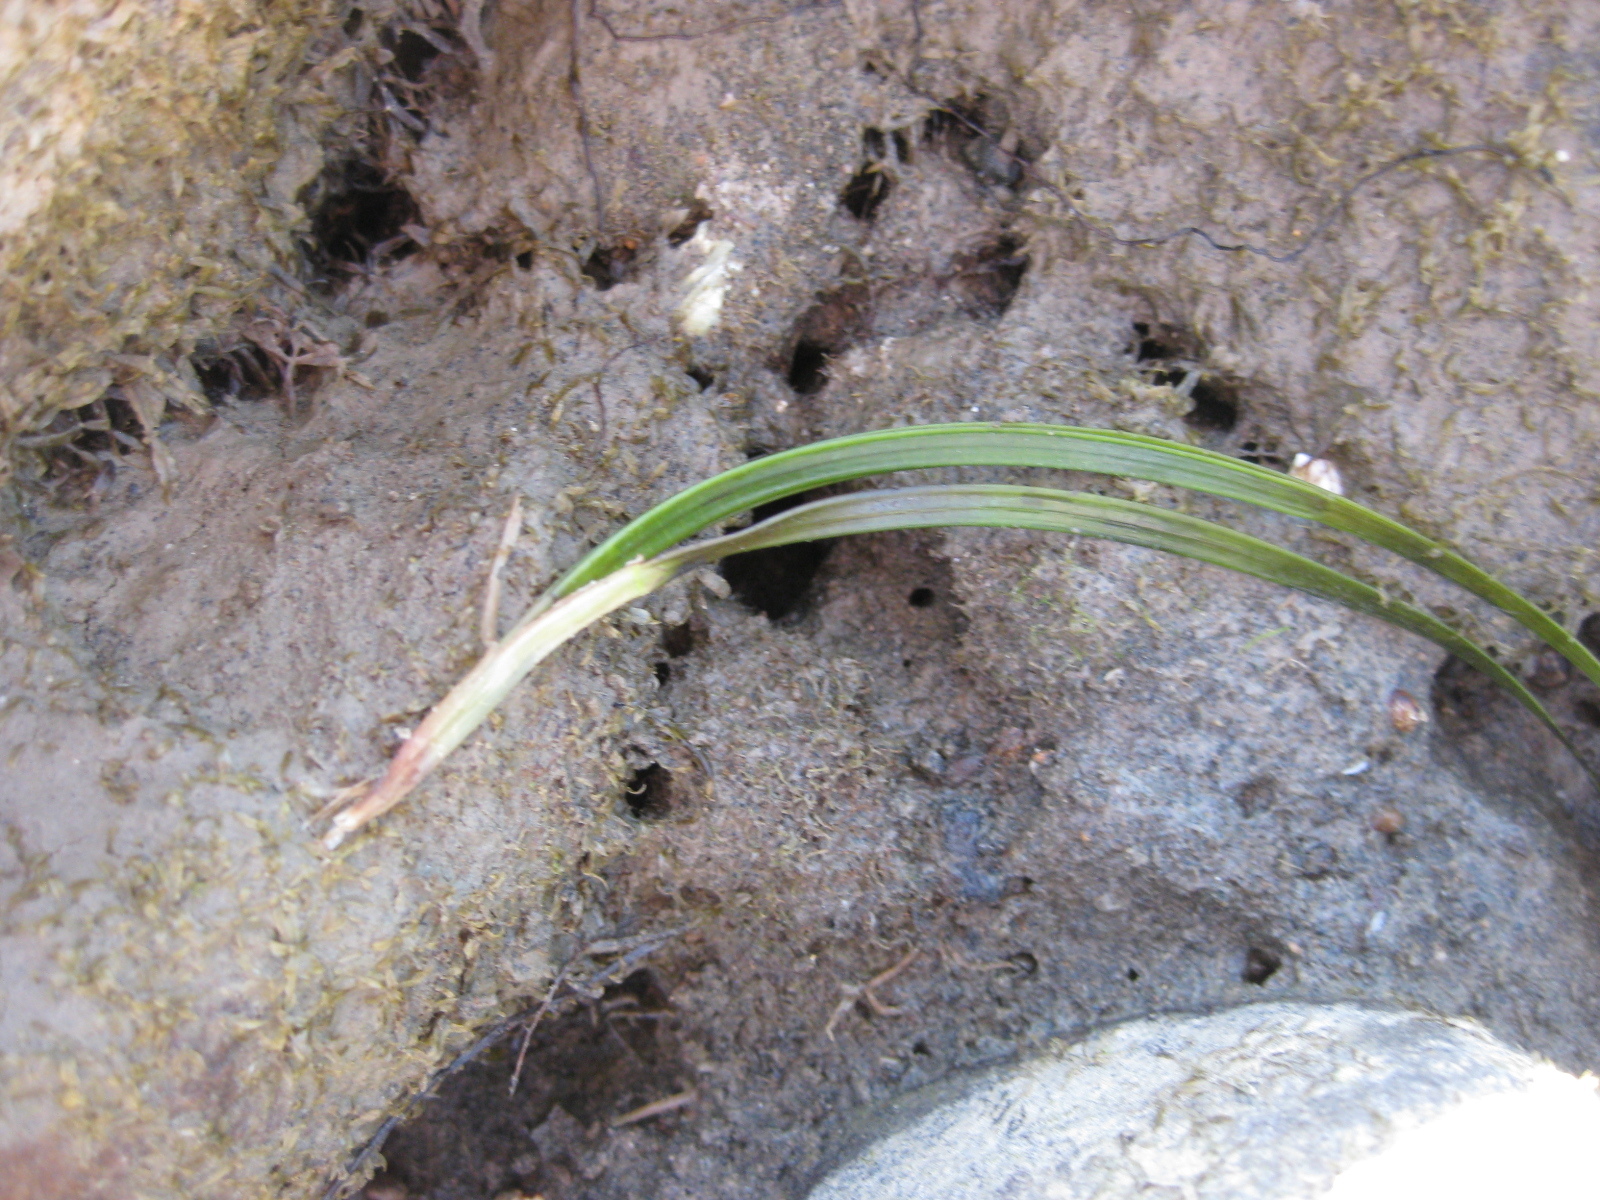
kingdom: Plantae
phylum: Tracheophyta
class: Liliopsida
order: Alismatales
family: Zosteraceae
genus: Zostera
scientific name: Zostera novazelandica
